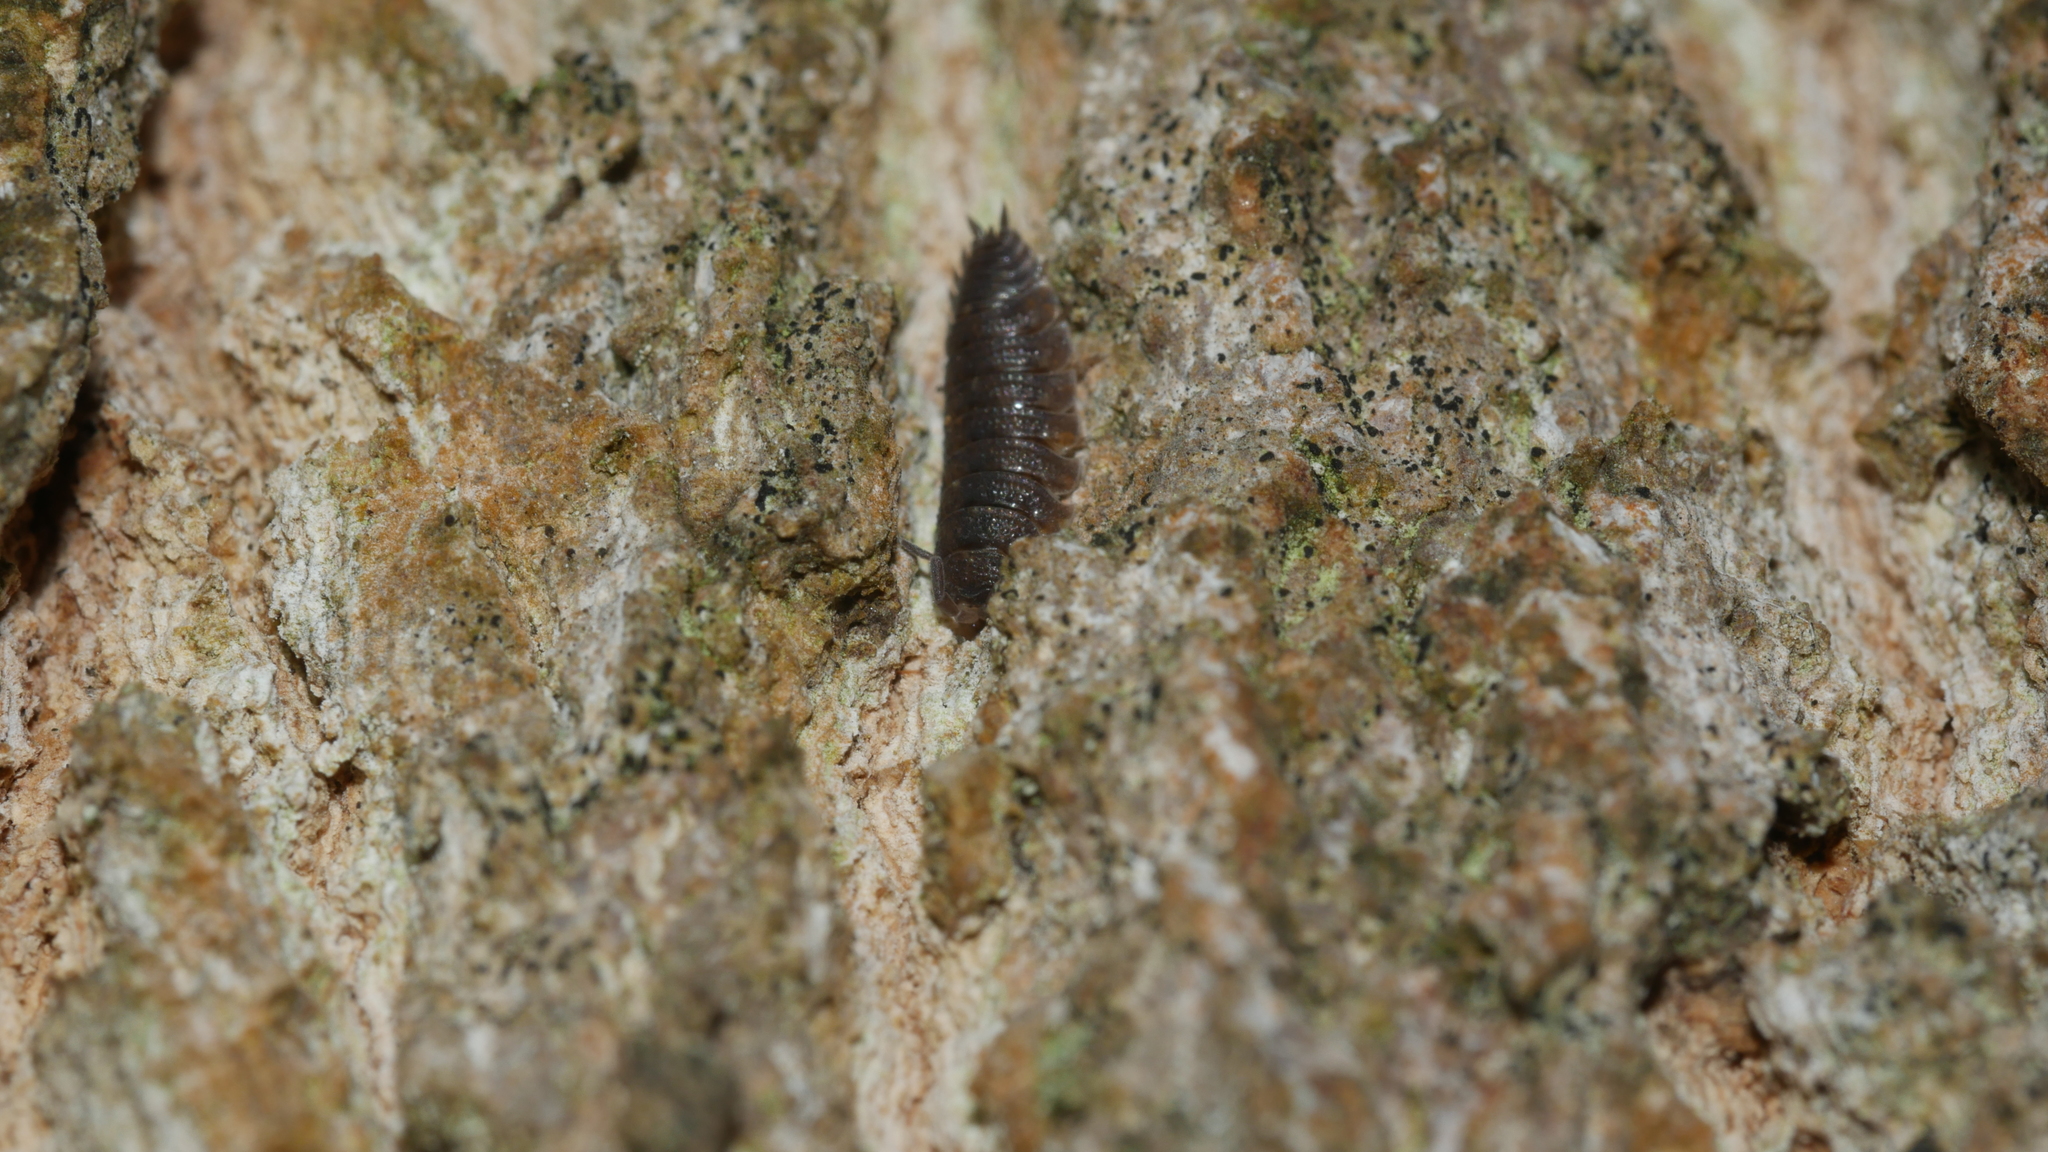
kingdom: Animalia
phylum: Arthropoda
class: Malacostraca
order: Isopoda
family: Porcellionidae
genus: Porcellio
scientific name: Porcellio scaber
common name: Common rough woodlouse
